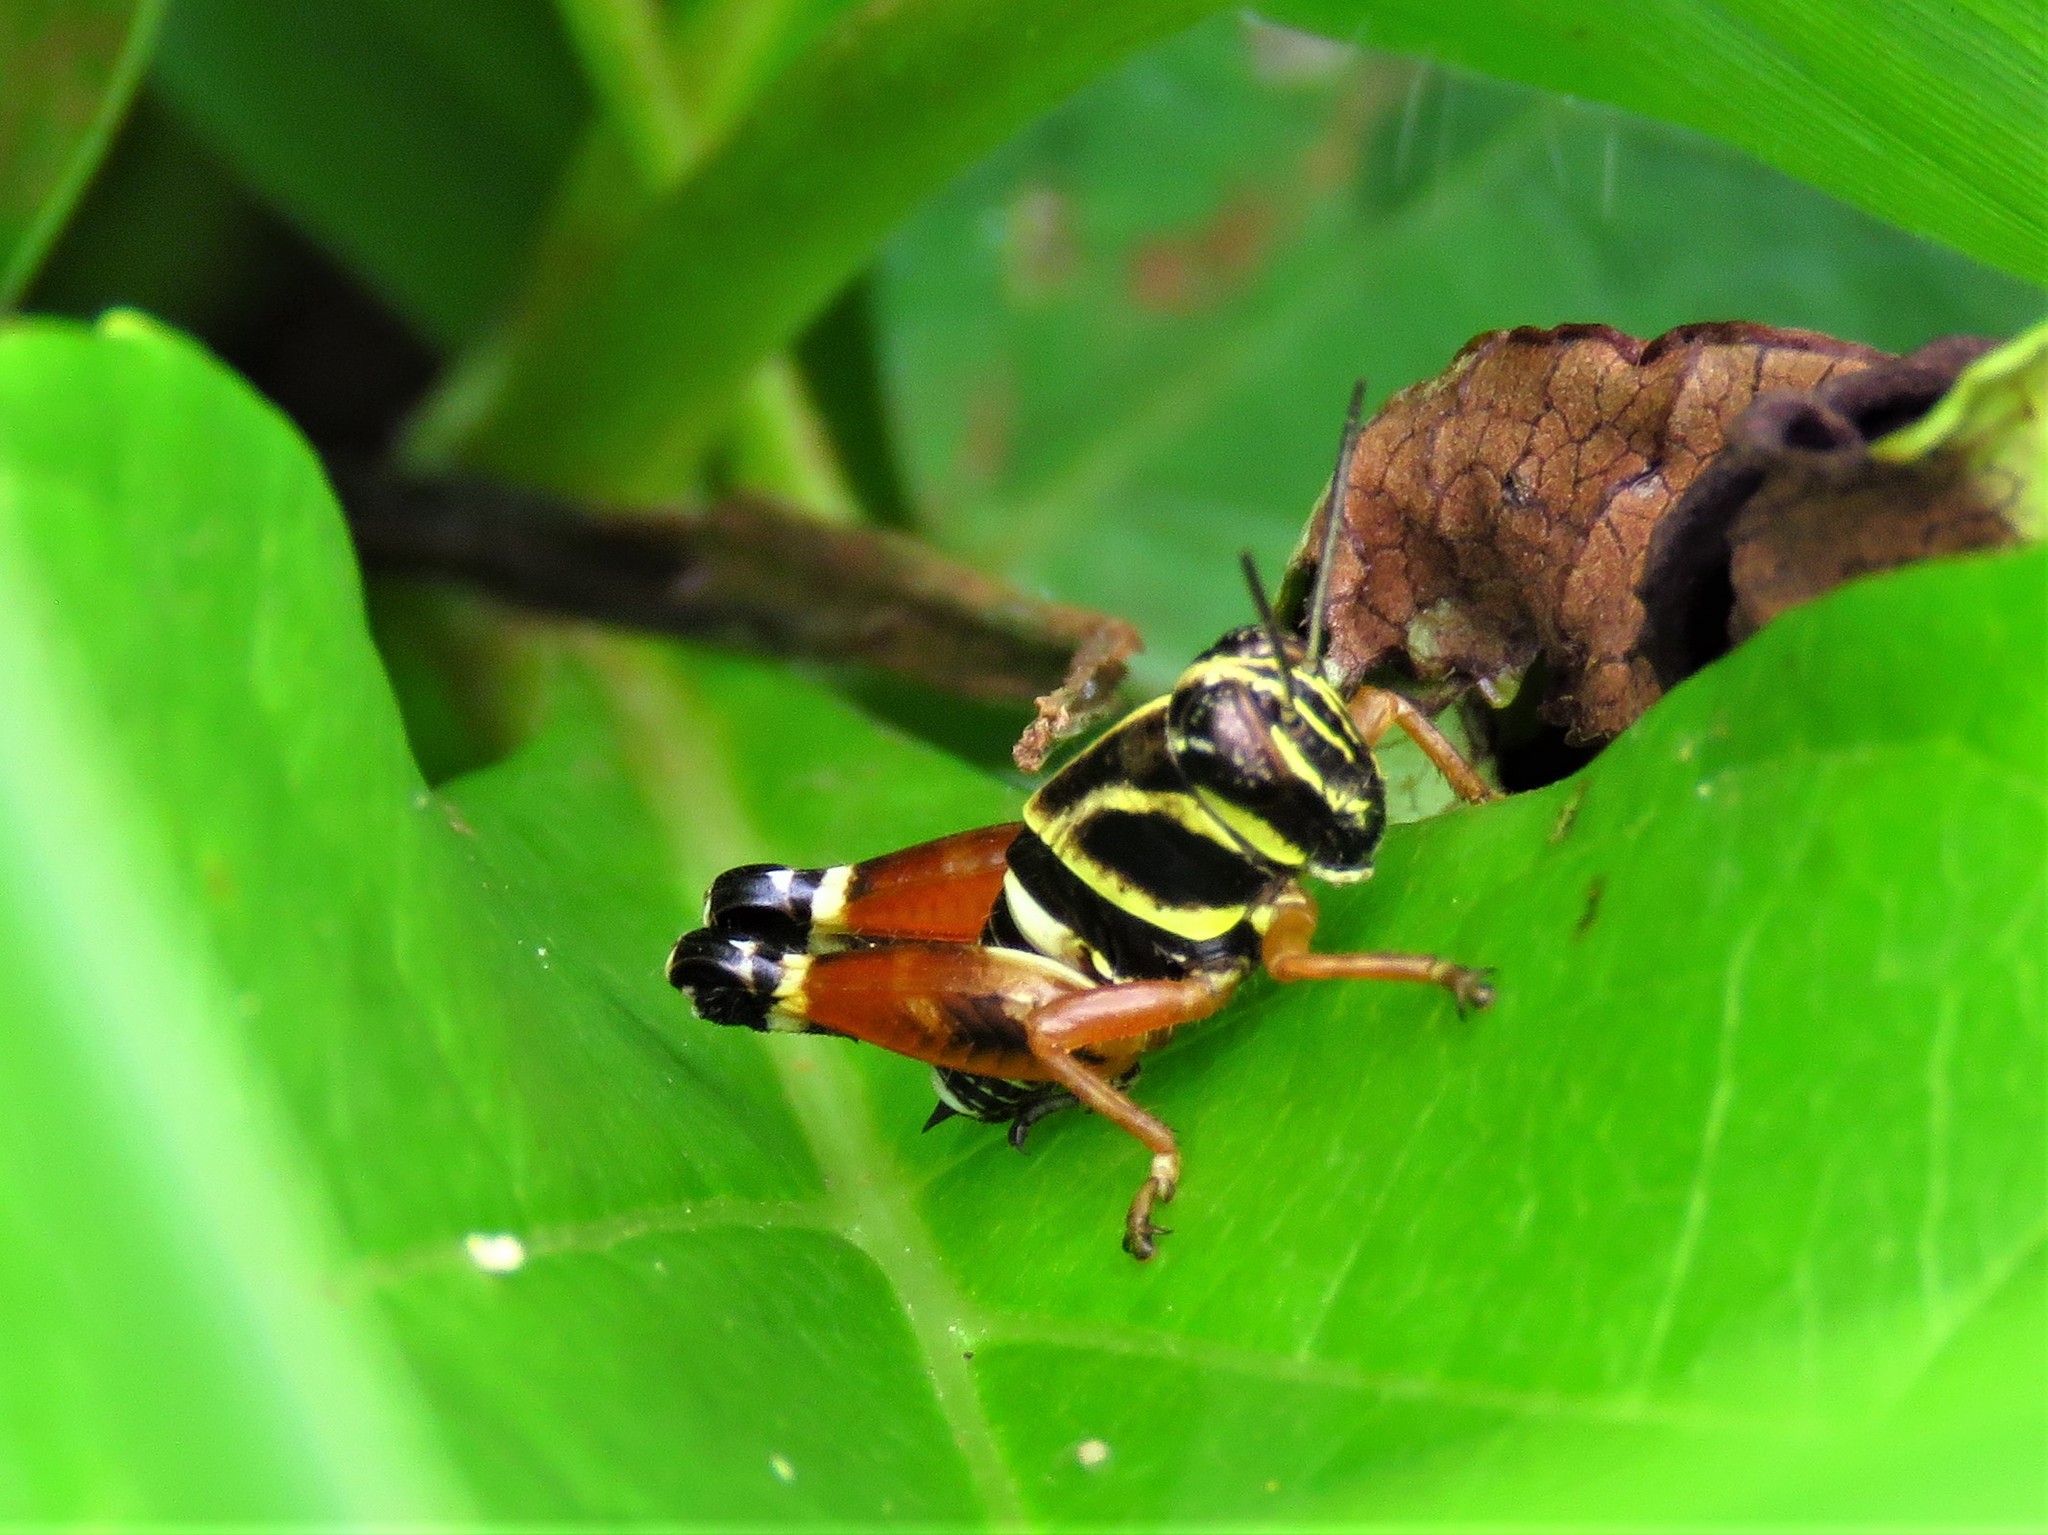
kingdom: Animalia
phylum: Arthropoda
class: Insecta
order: Orthoptera
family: Acrididae
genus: Aidemona
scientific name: Aidemona azteca
